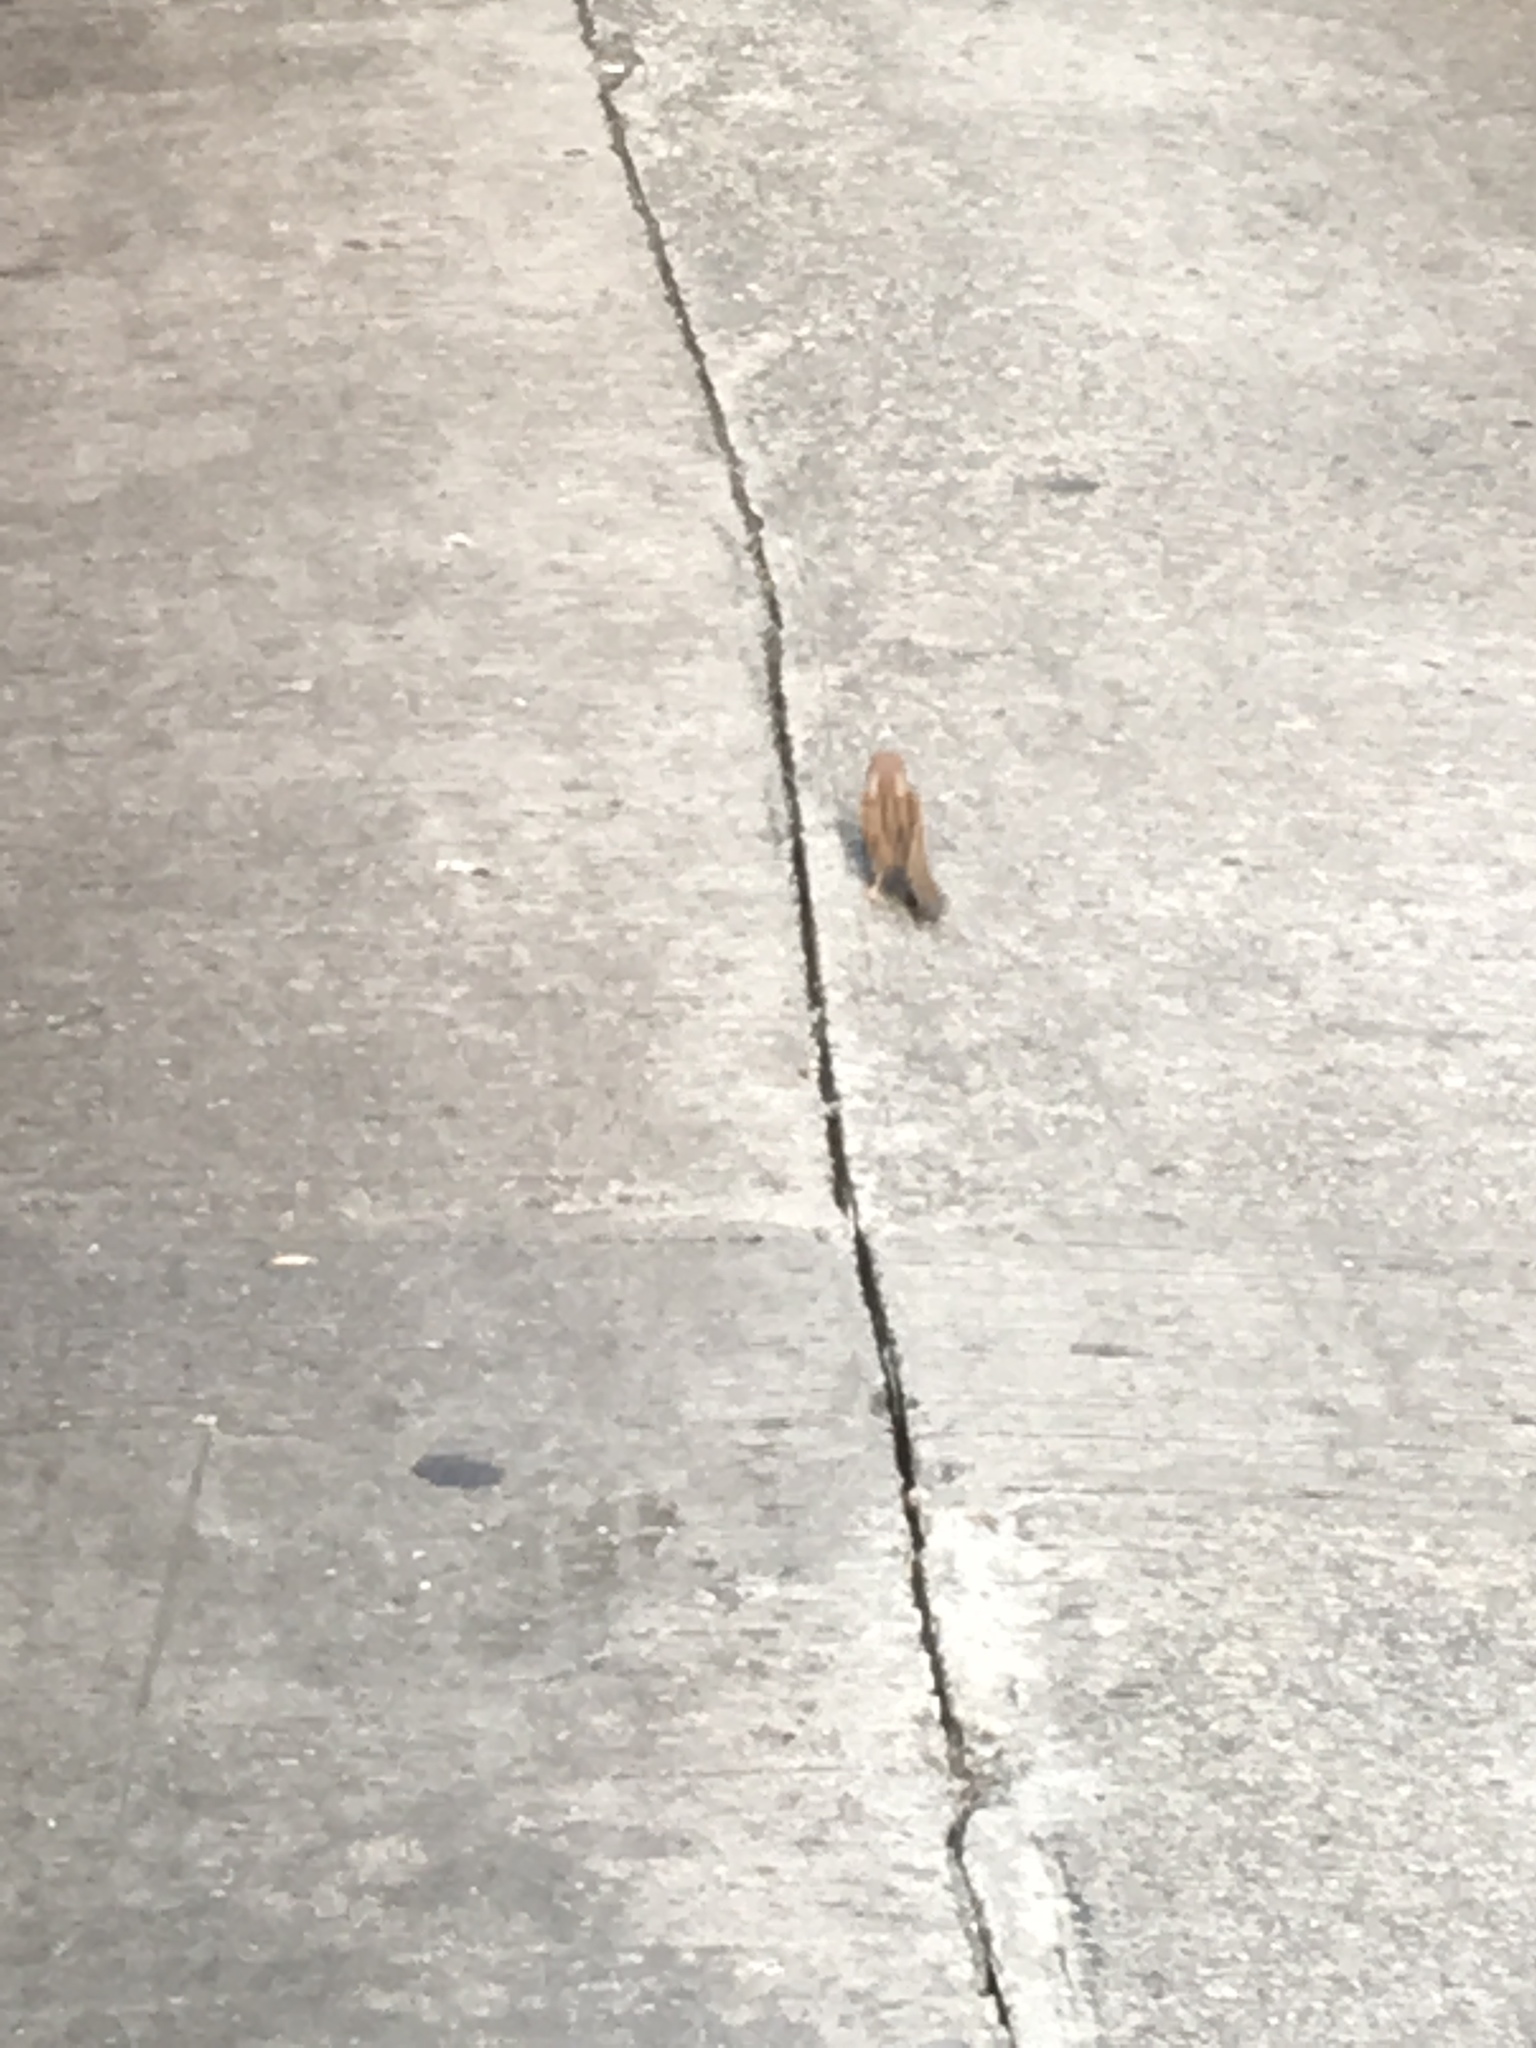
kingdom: Animalia
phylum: Chordata
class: Aves
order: Passeriformes
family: Passeridae
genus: Passer
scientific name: Passer montanus
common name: Eurasian tree sparrow
